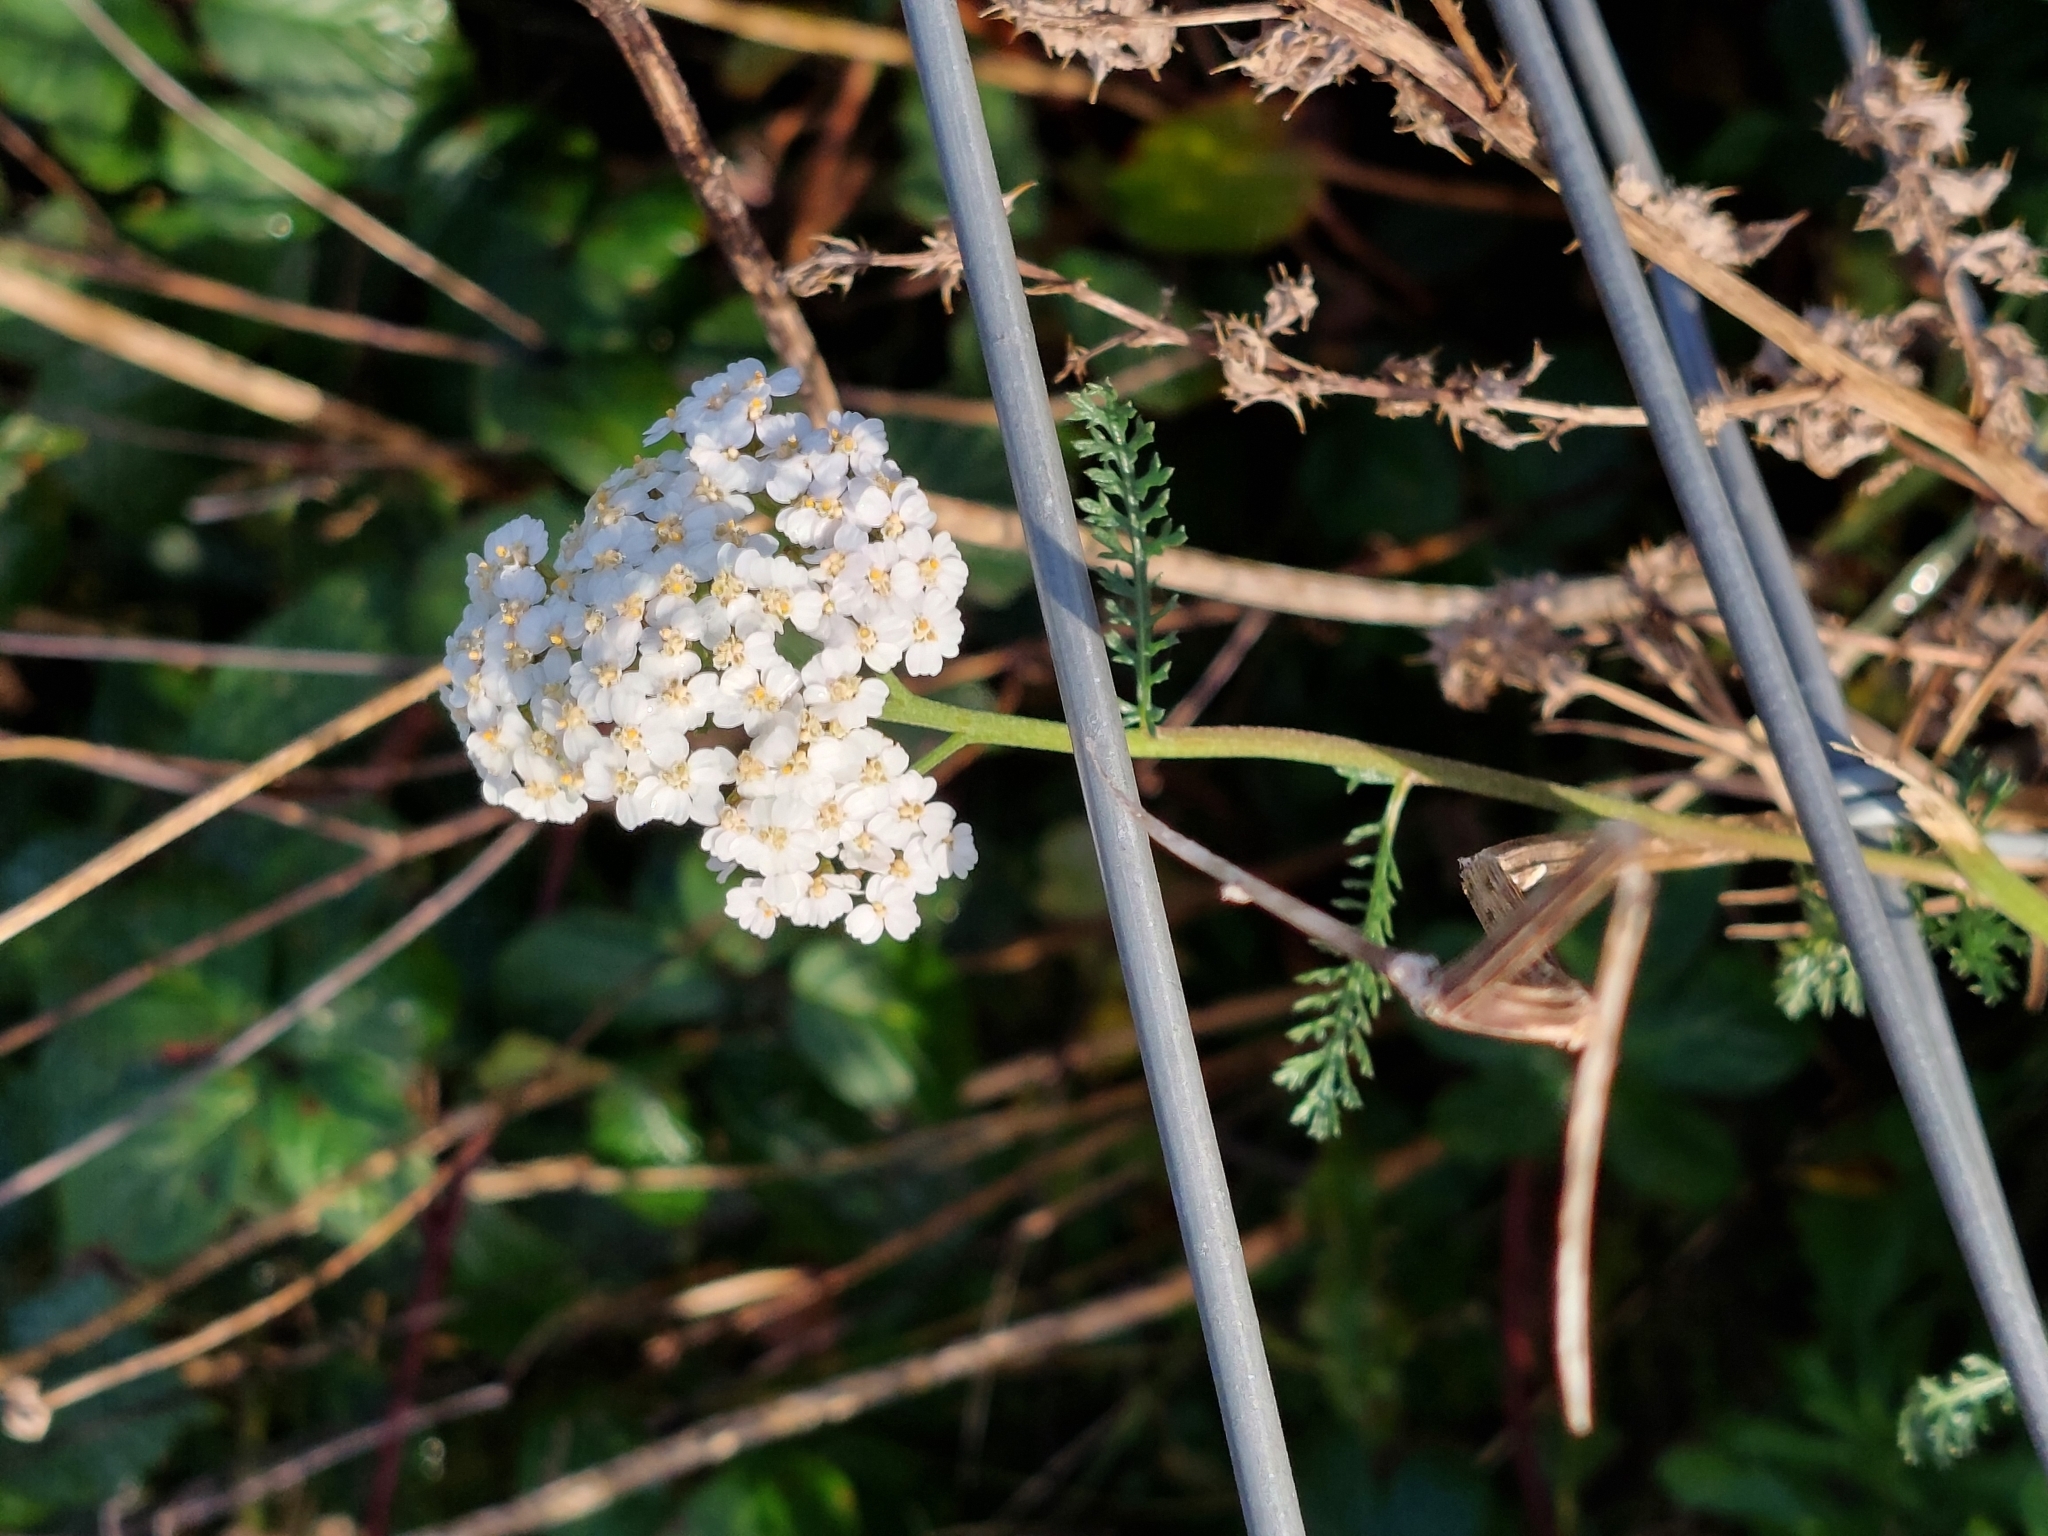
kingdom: Plantae
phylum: Tracheophyta
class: Magnoliopsida
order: Asterales
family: Asteraceae
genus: Achillea
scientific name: Achillea millefolium
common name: Yarrow
